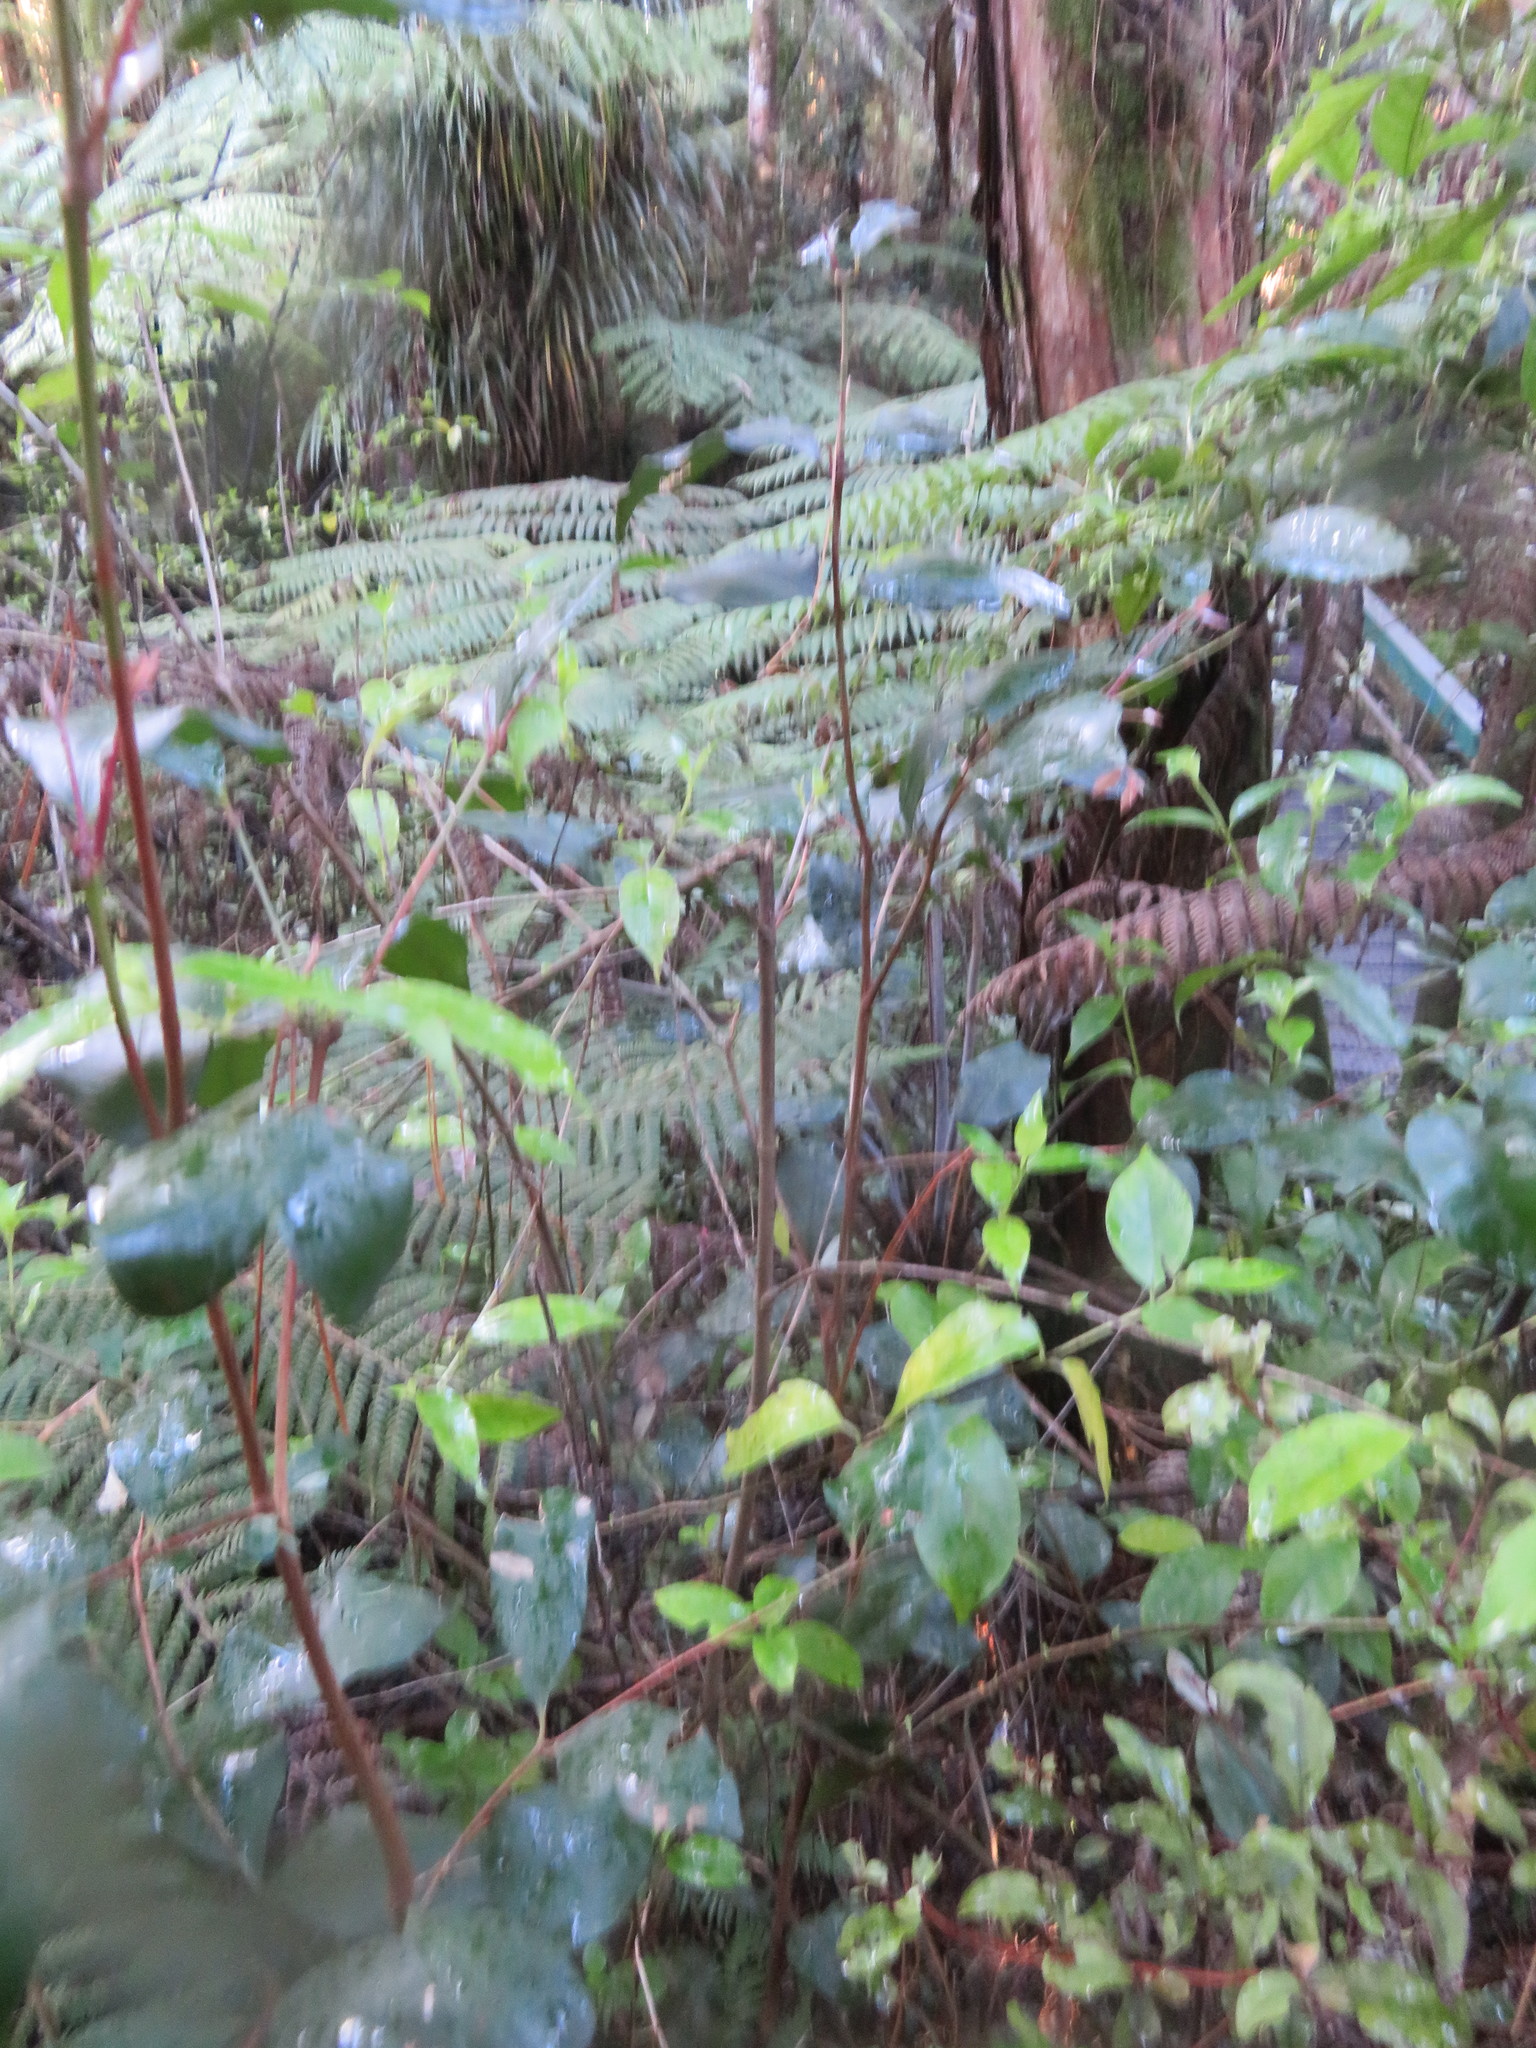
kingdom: Plantae
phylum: Tracheophyta
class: Magnoliopsida
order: Gentianales
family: Loganiaceae
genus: Geniostoma
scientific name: Geniostoma ligustrifolium
